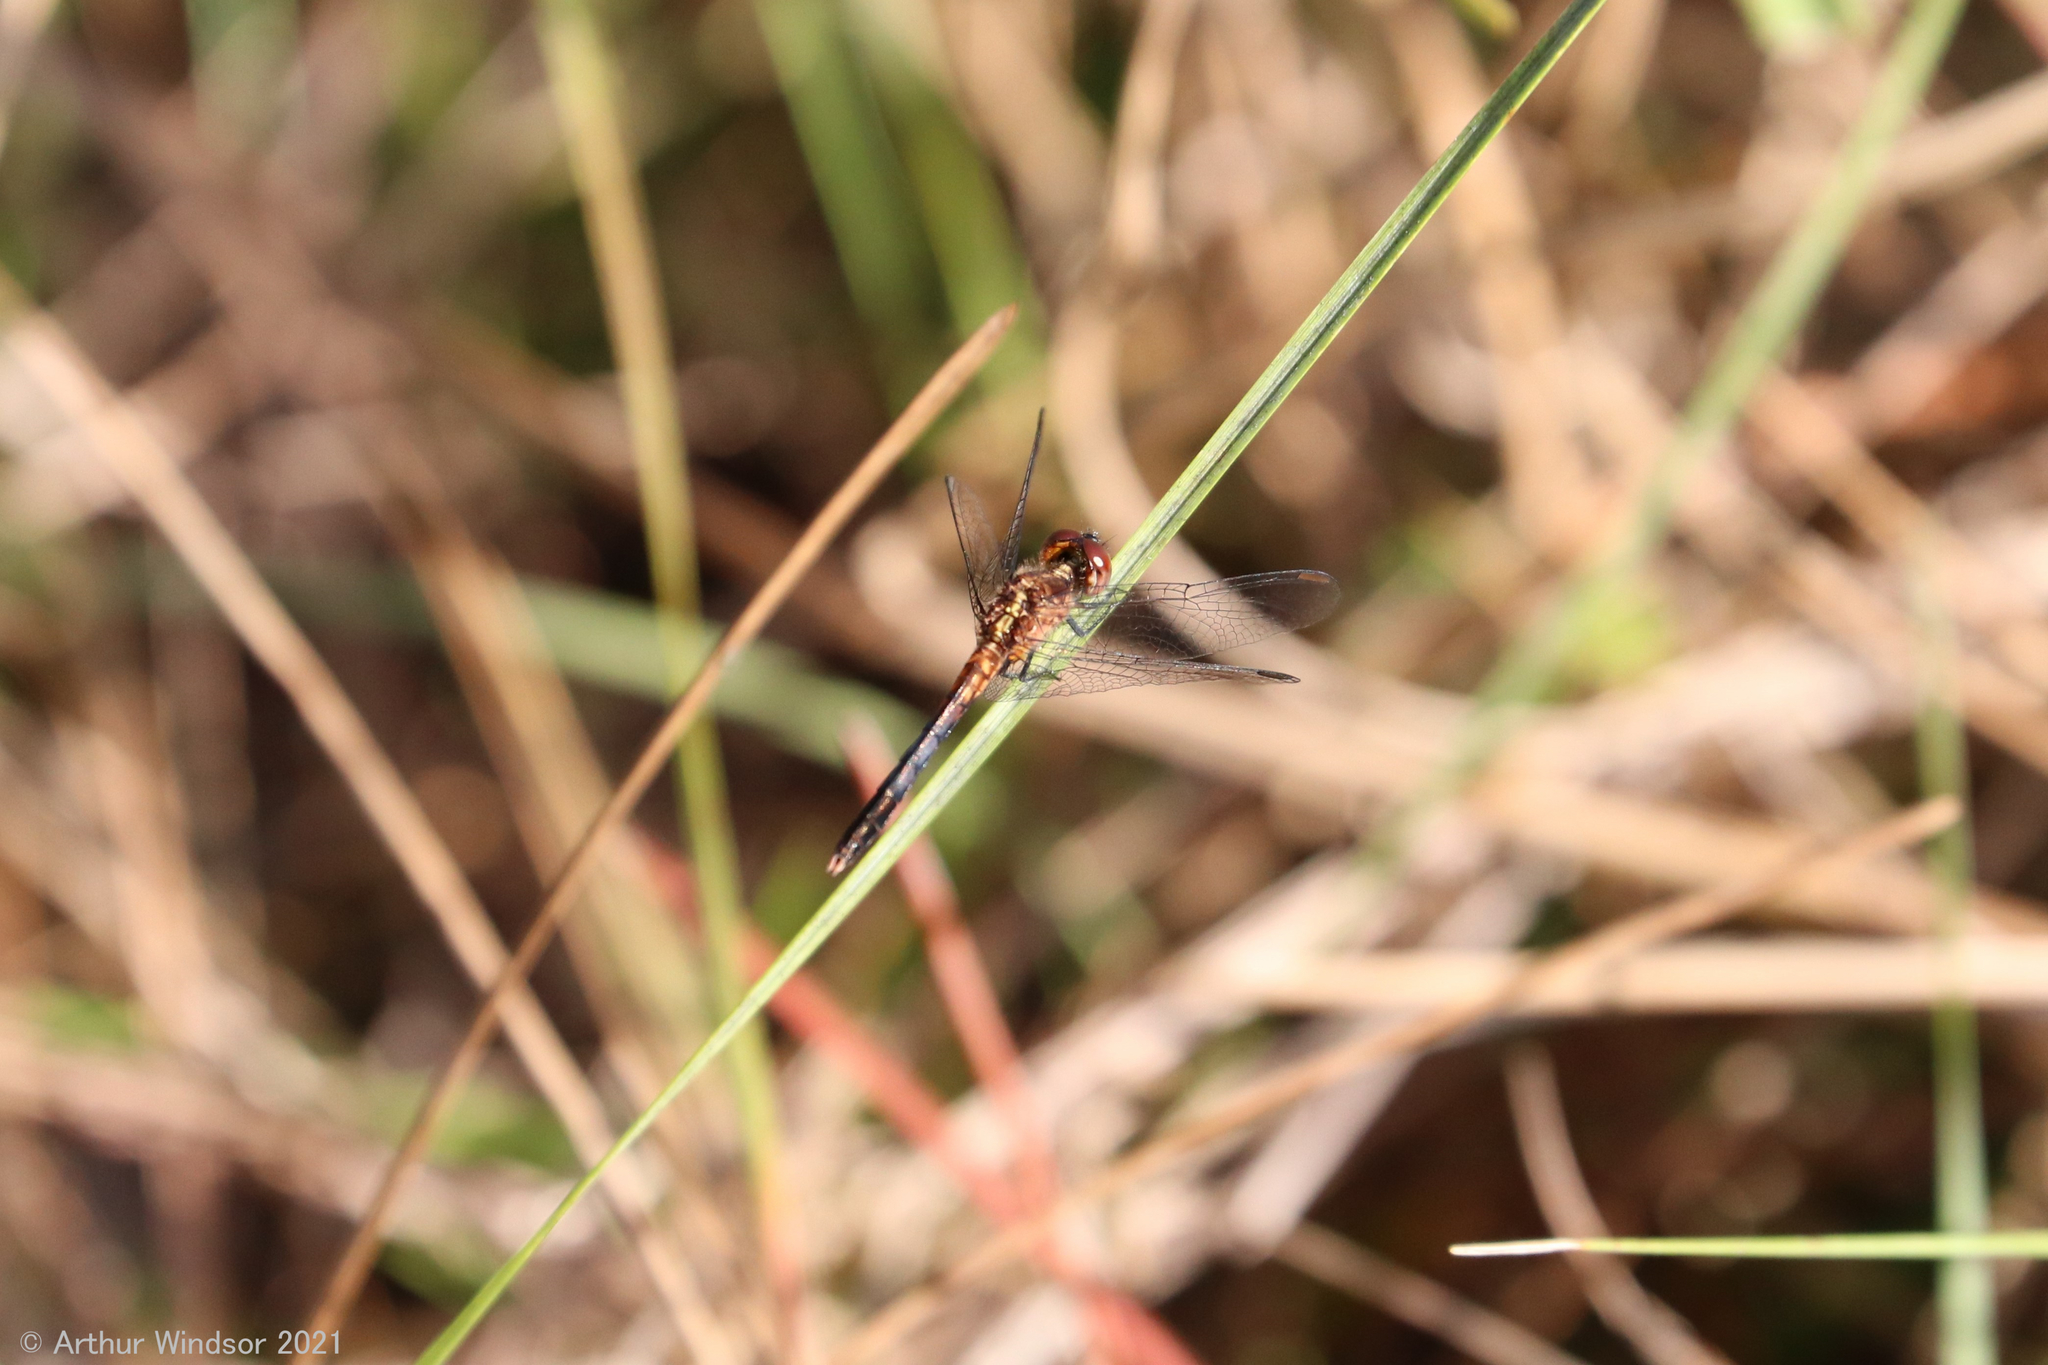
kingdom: Animalia
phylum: Arthropoda
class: Insecta
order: Odonata
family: Libellulidae
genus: Erythrodiplax
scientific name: Erythrodiplax minuscula
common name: Little blue dragonlet
